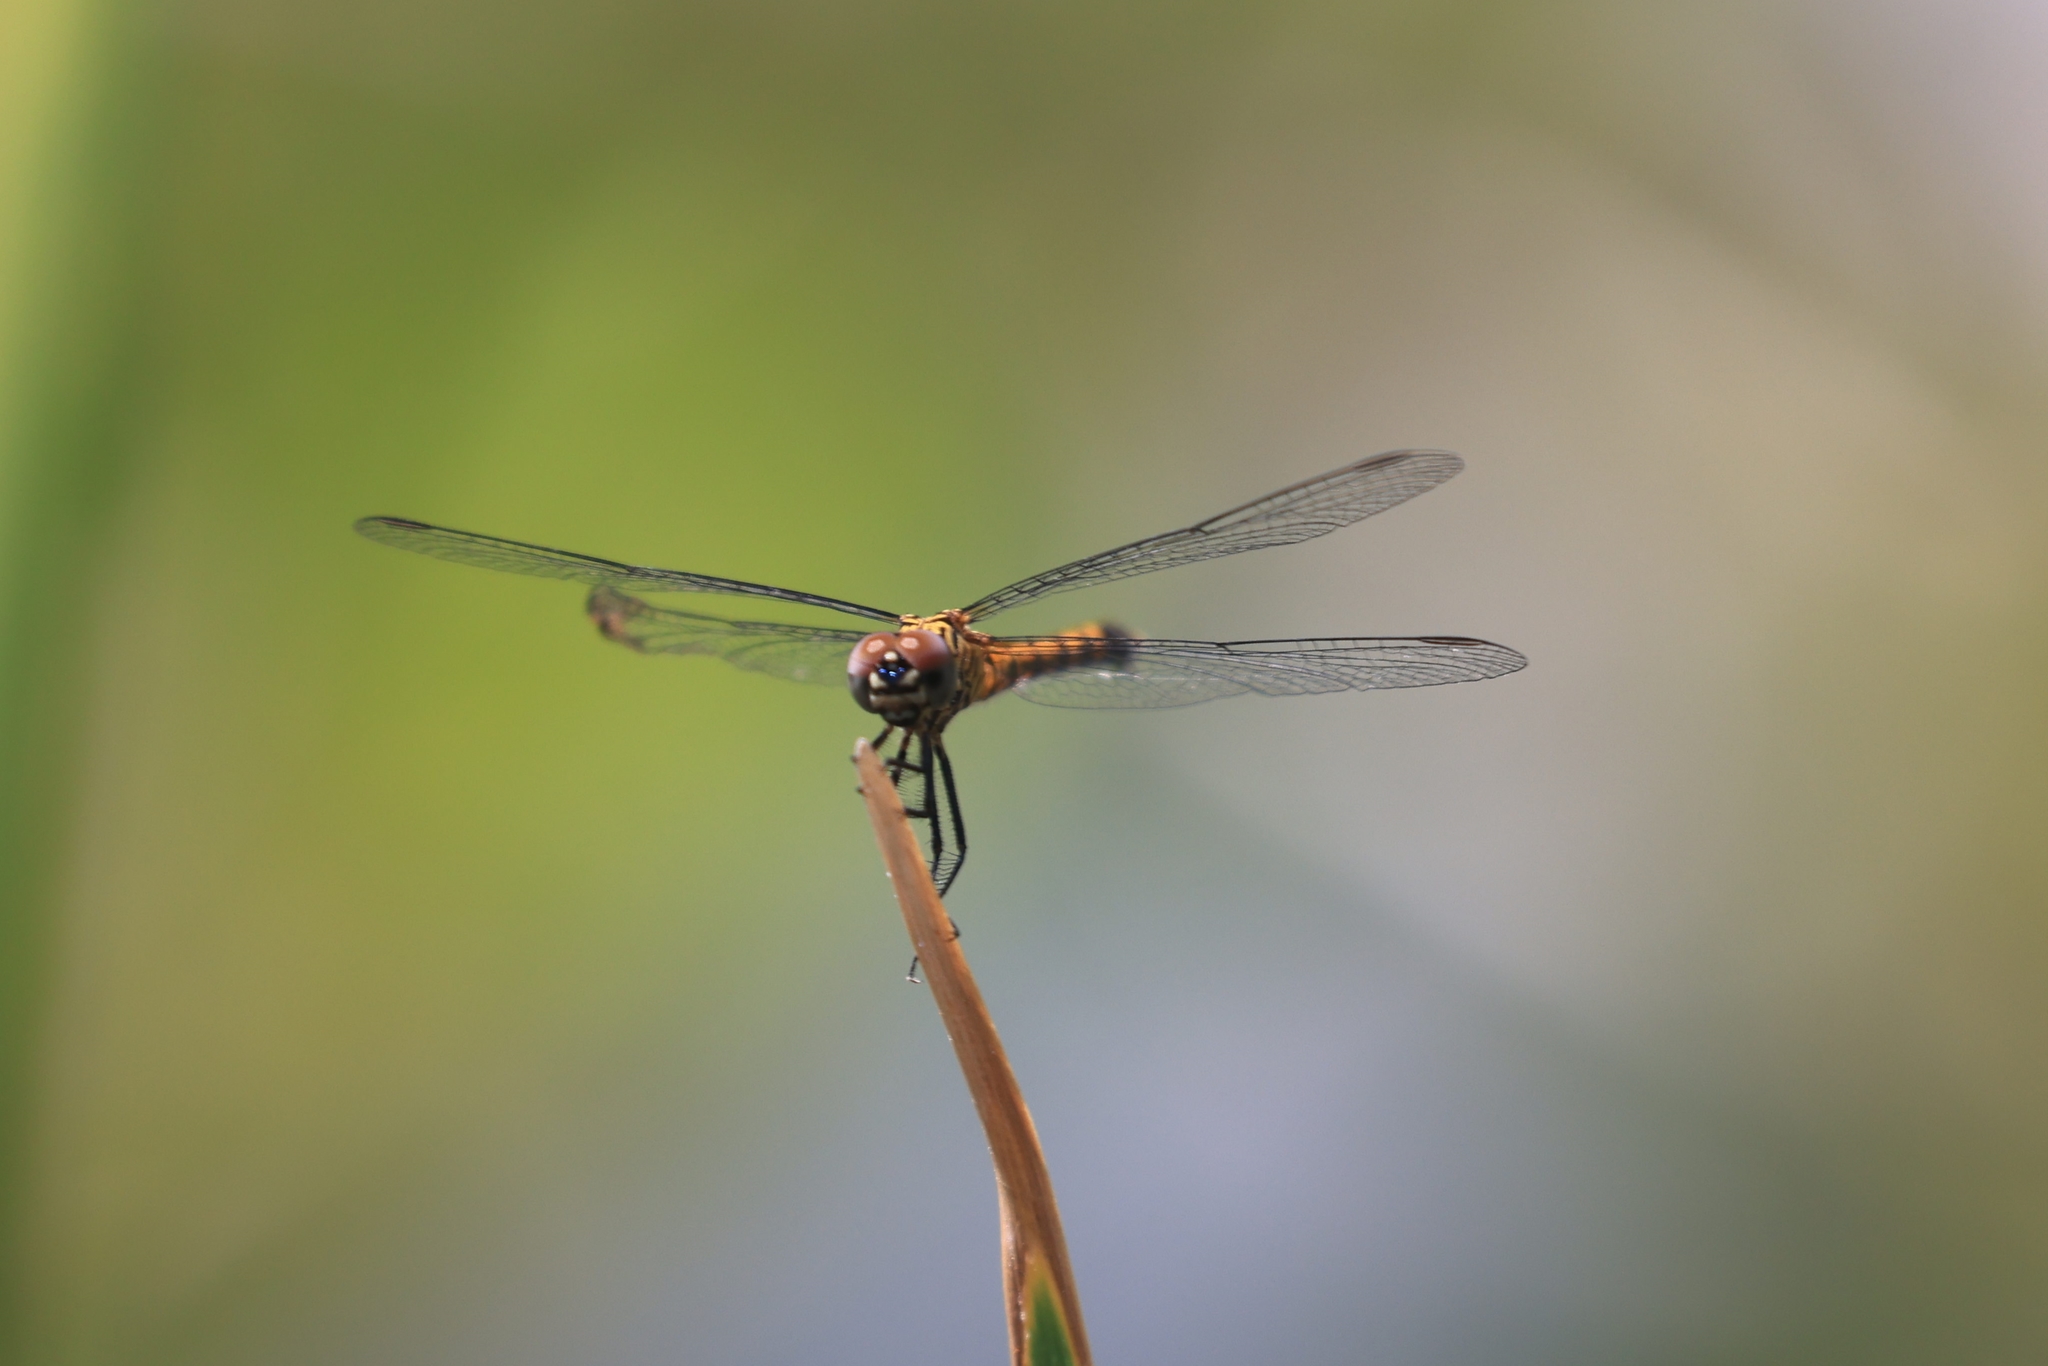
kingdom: Animalia
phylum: Arthropoda
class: Insecta
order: Odonata
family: Libellulidae
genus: Erythrodiplax
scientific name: Erythrodiplax berenice
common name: Seaside dragonlet
